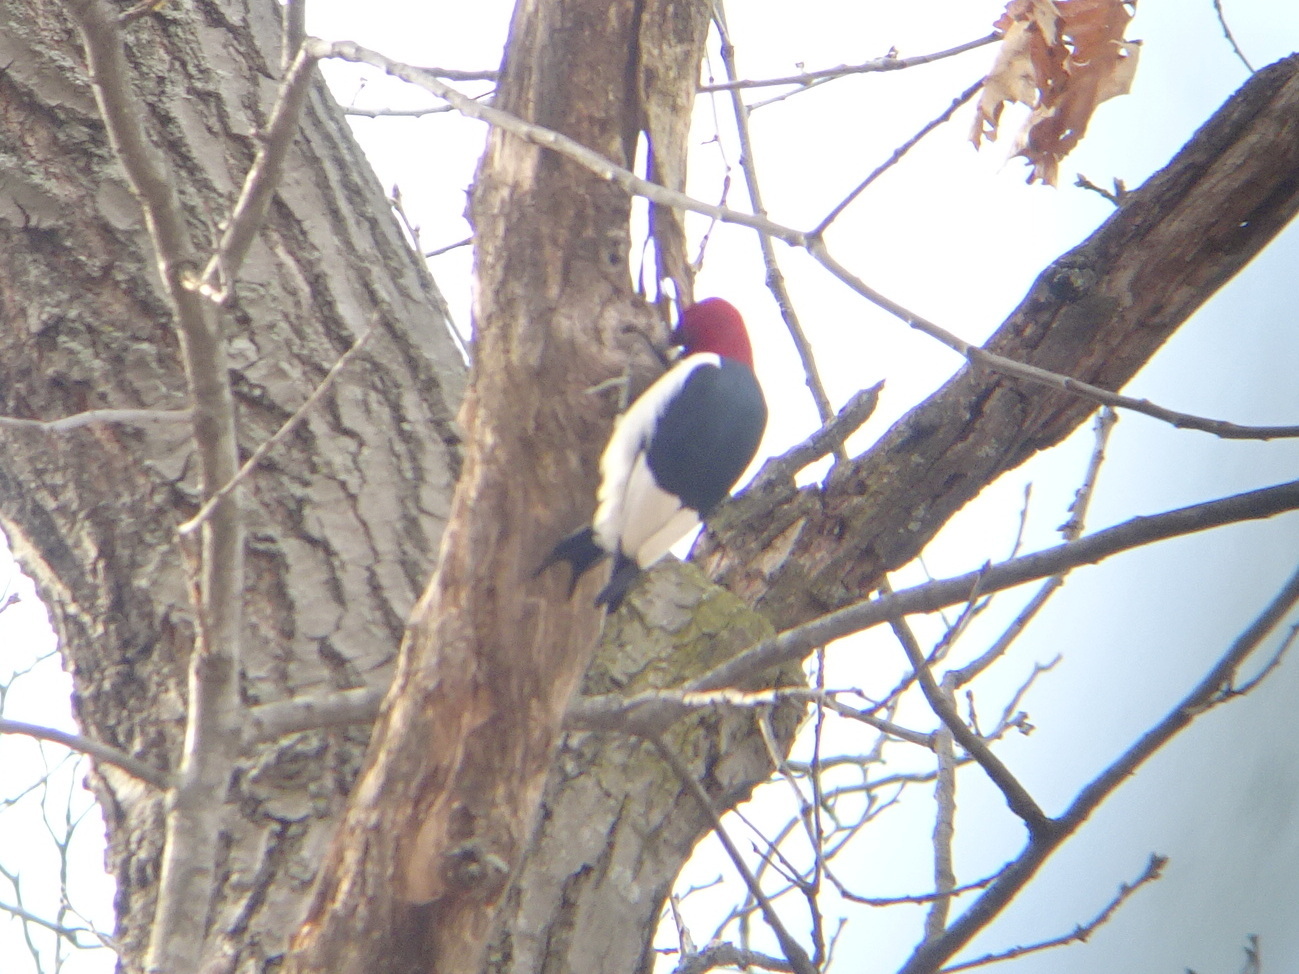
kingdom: Animalia
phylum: Chordata
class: Aves
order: Piciformes
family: Picidae
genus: Melanerpes
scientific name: Melanerpes erythrocephalus
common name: Red-headed woodpecker
